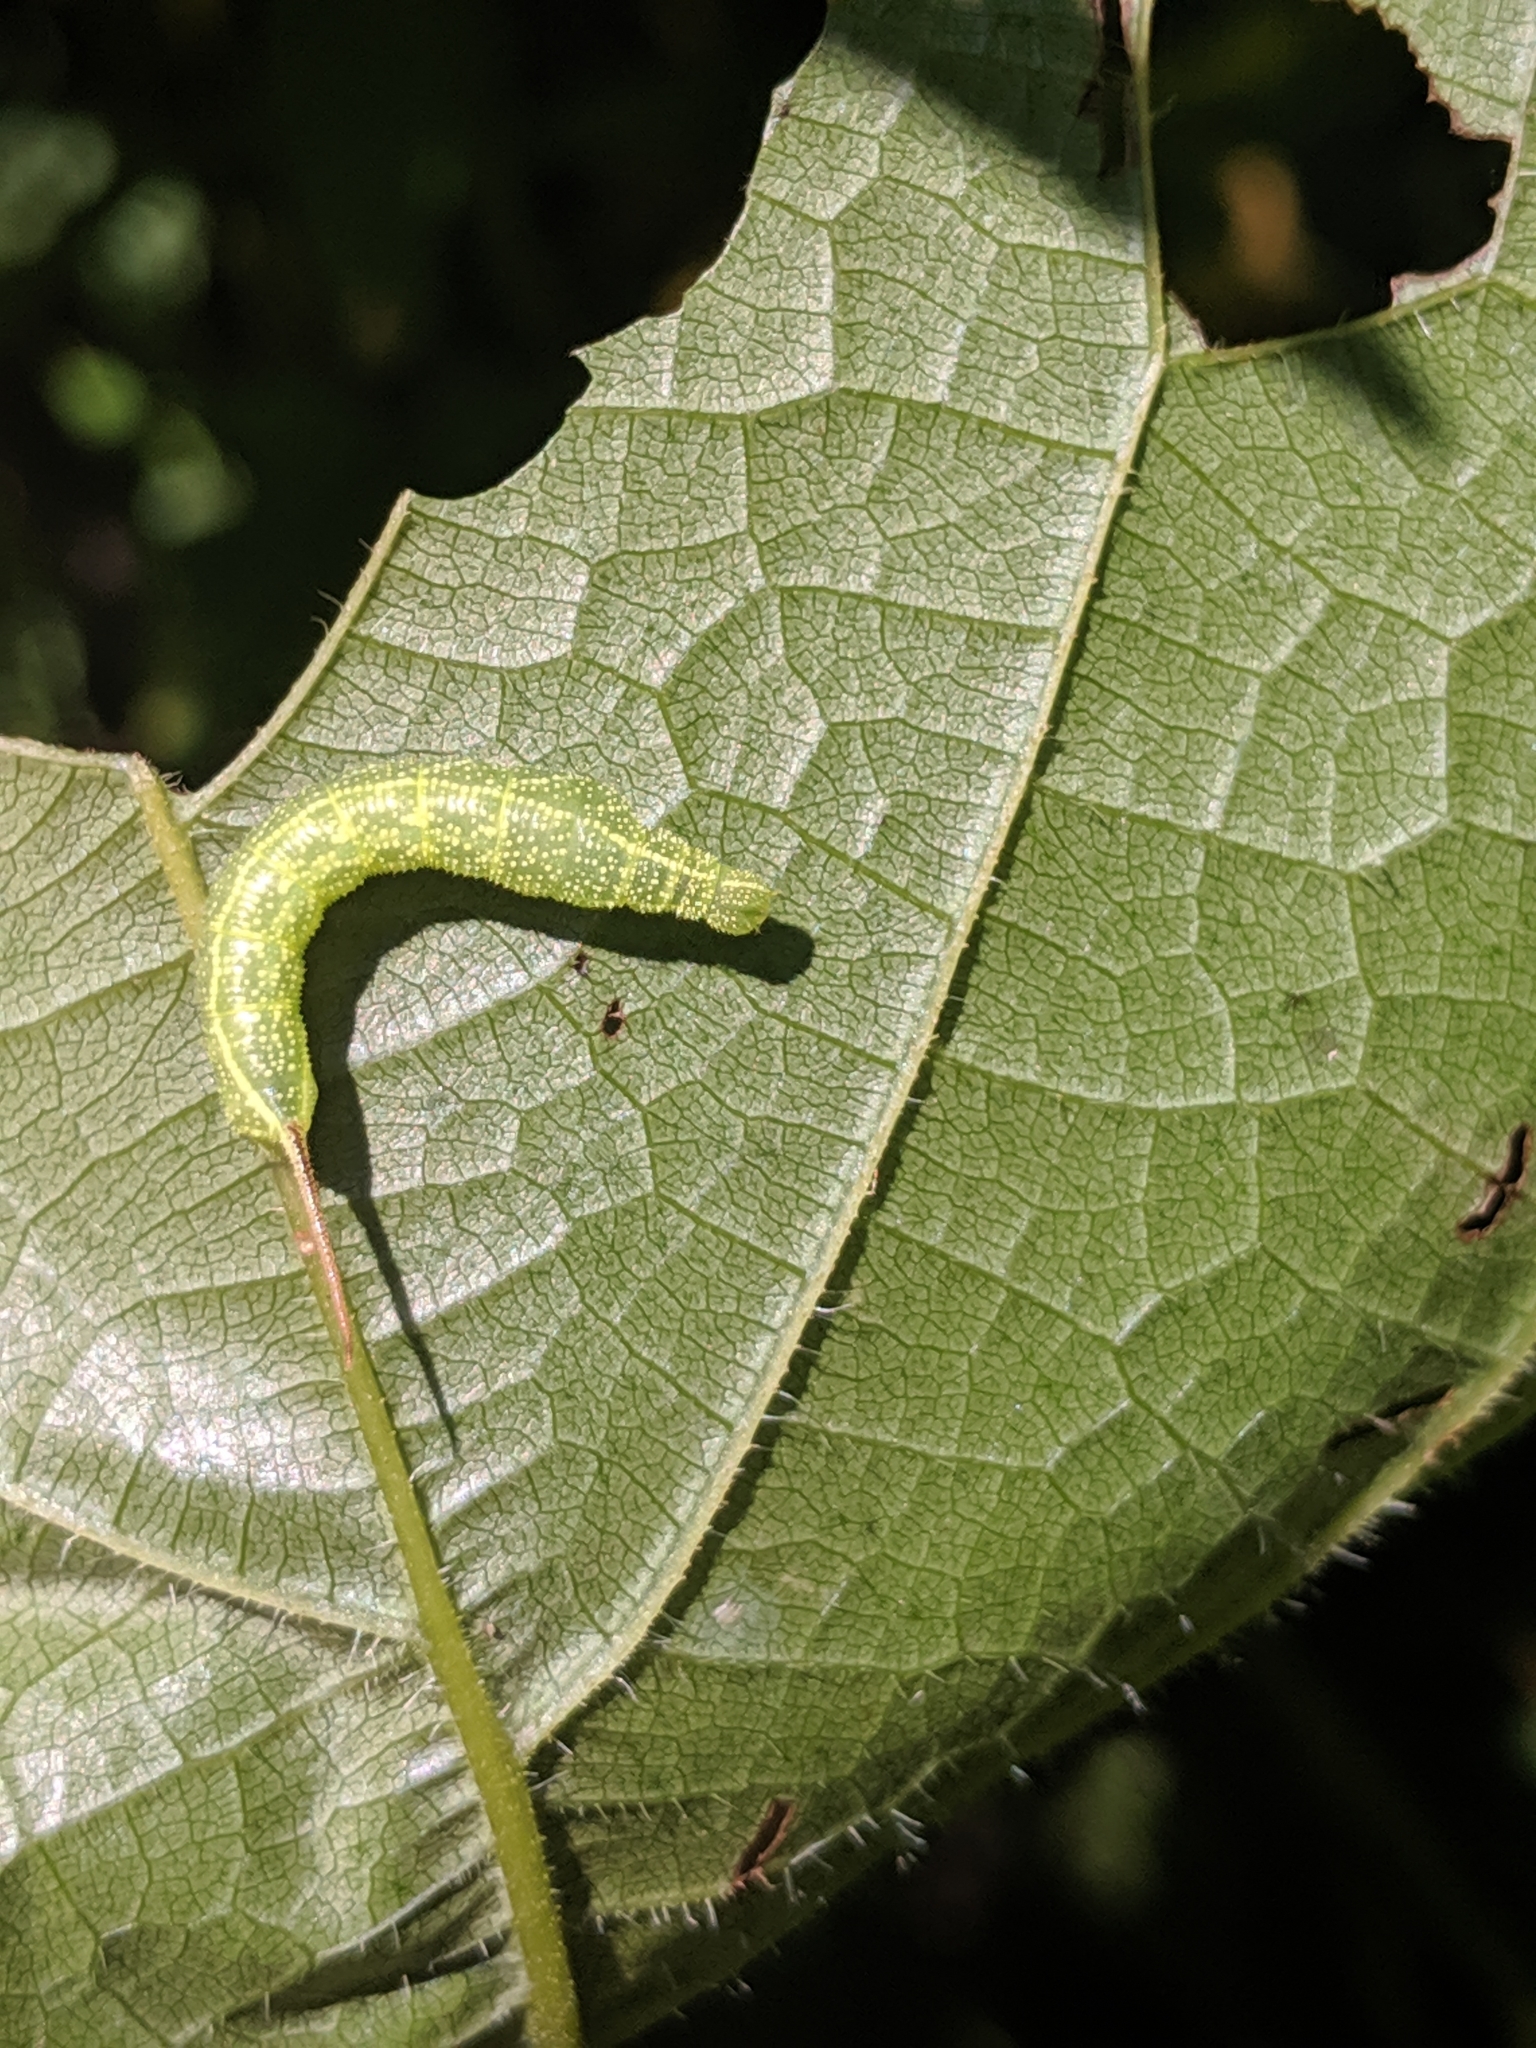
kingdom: Animalia
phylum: Arthropoda
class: Insecta
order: Lepidoptera
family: Sphingidae
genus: Darapsa
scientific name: Darapsa myron
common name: Hog sphinx
